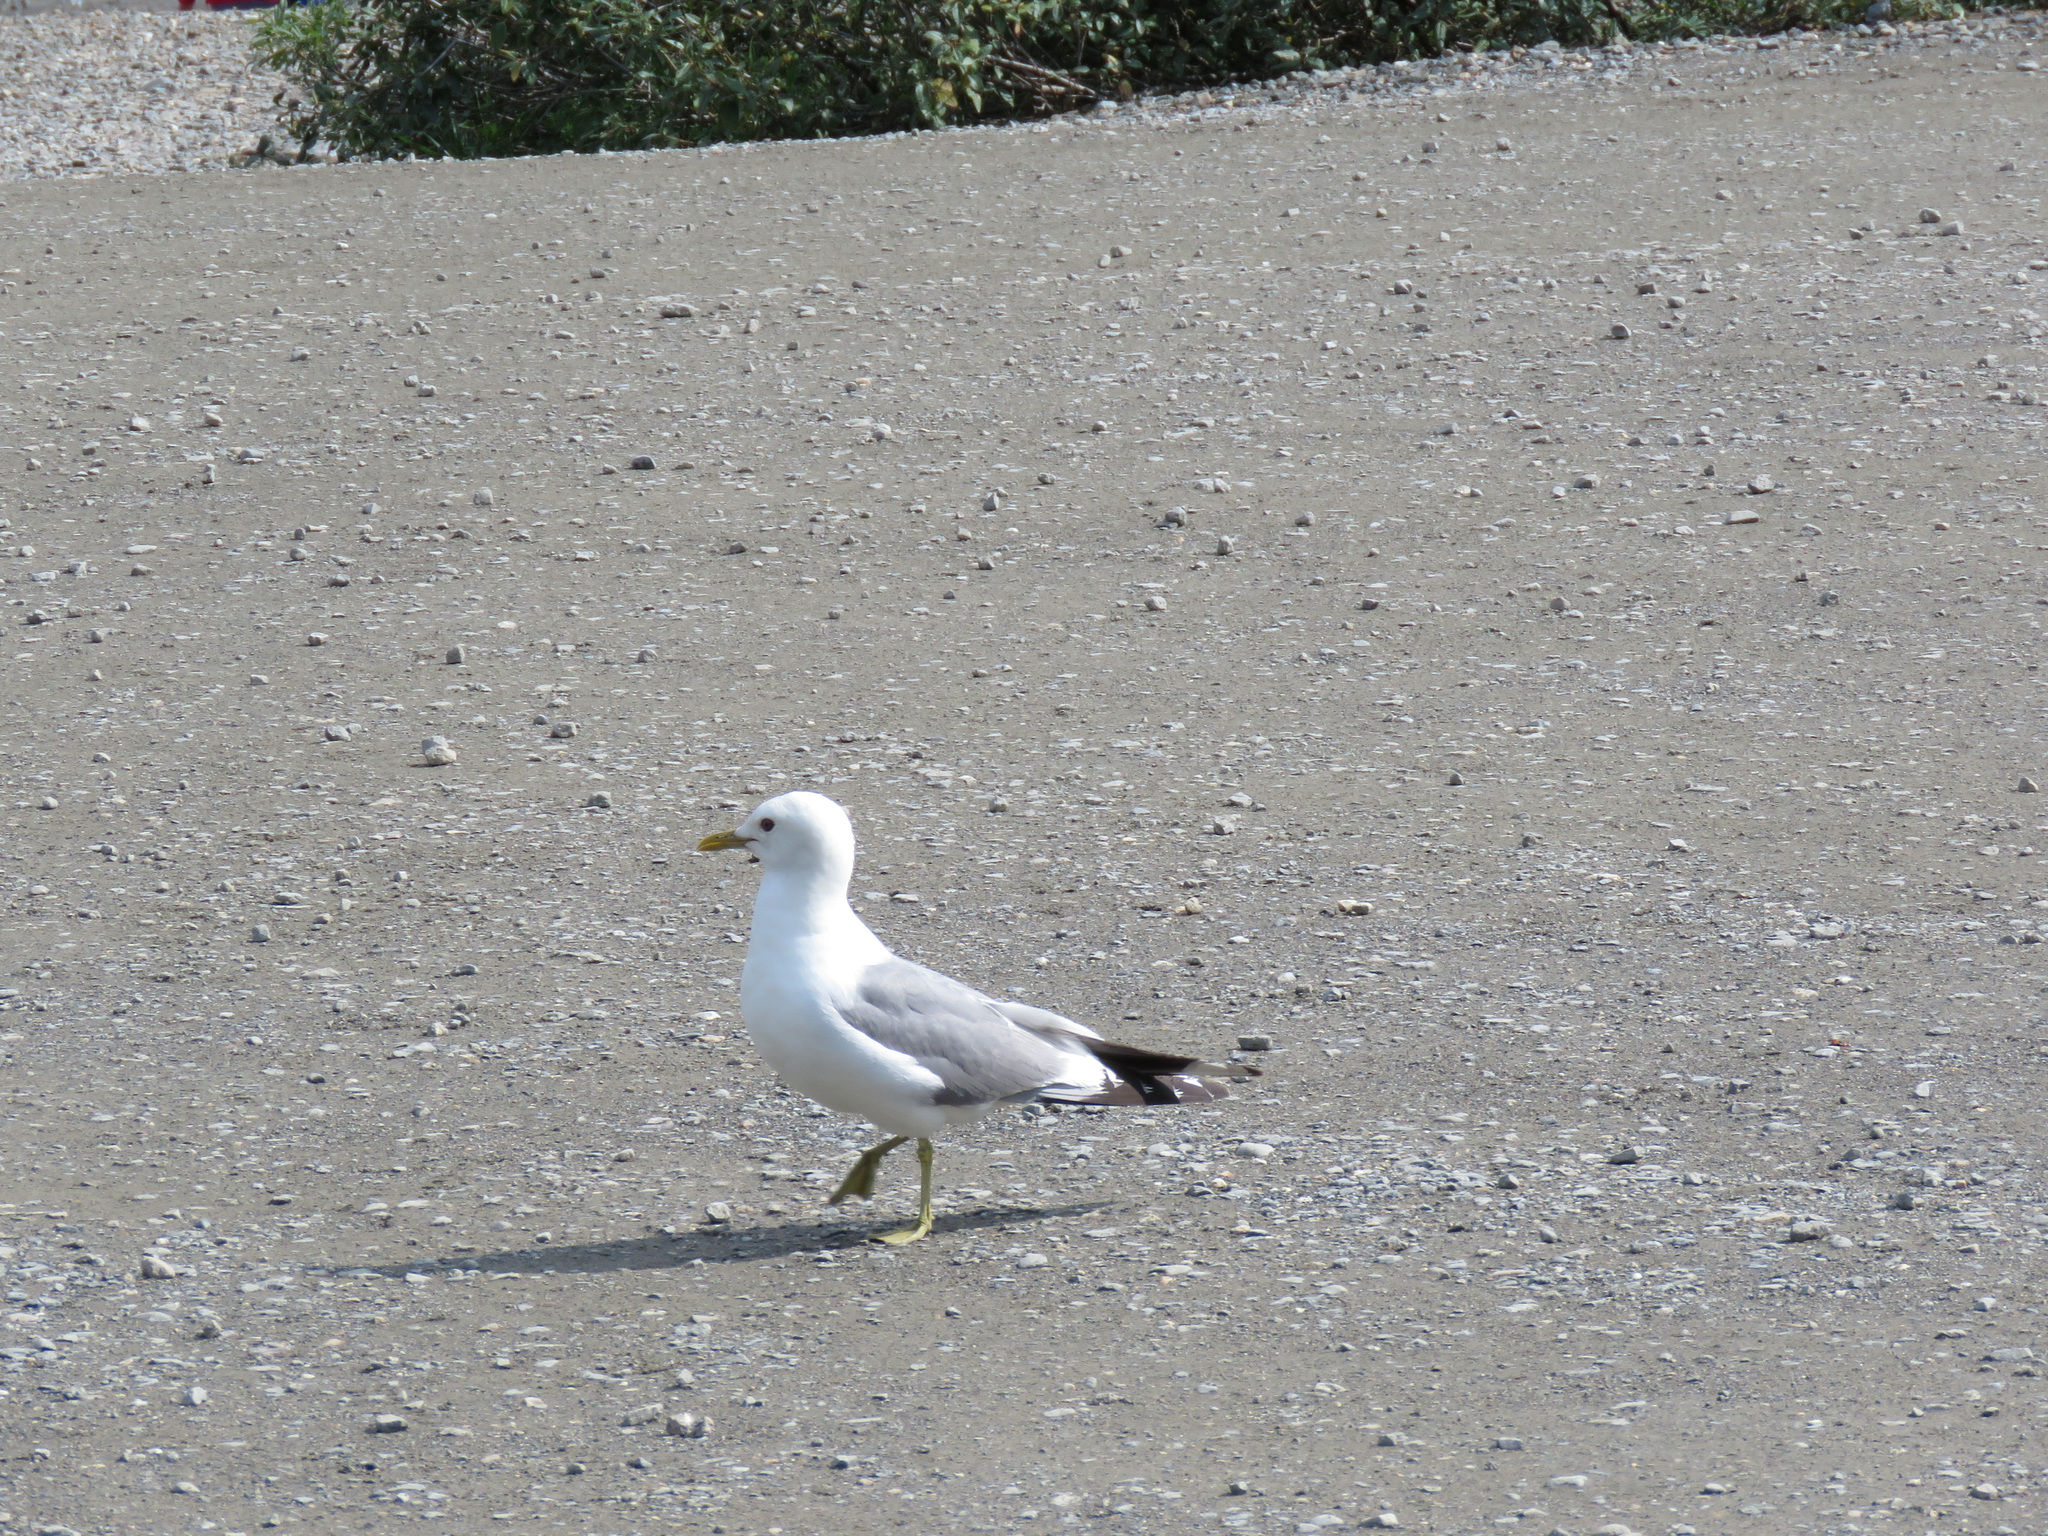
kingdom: Animalia
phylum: Chordata
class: Aves
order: Charadriiformes
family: Laridae
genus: Larus
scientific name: Larus brachyrhynchus
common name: Short-billed gull
